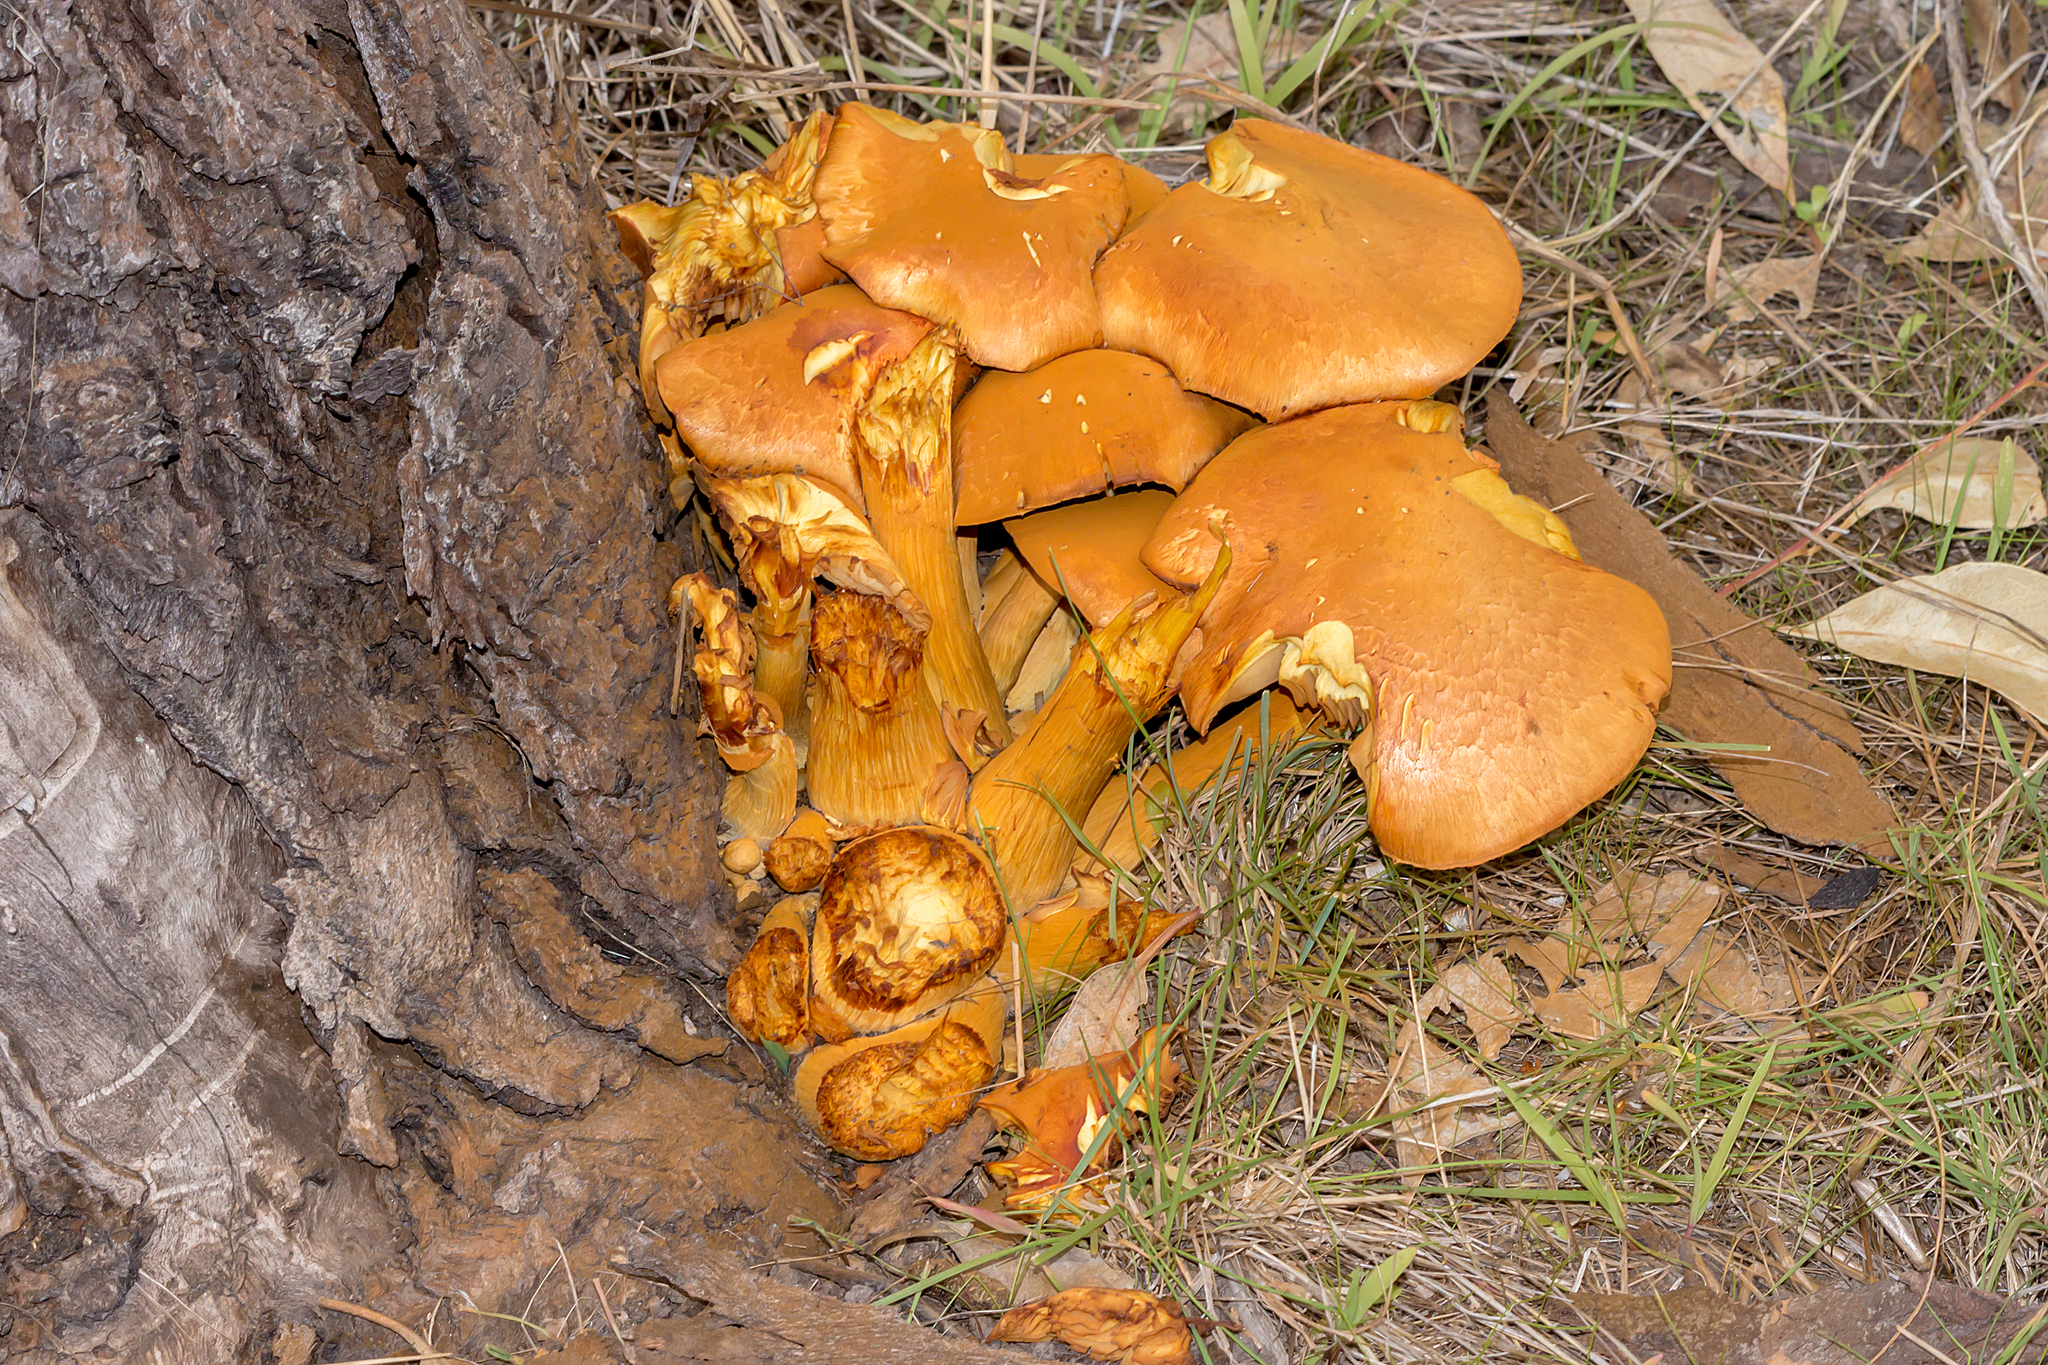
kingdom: Fungi
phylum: Basidiomycota
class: Agaricomycetes
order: Agaricales
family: Hymenogastraceae
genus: Gymnopilus
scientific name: Gymnopilus junonius
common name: Spectacular rustgill
